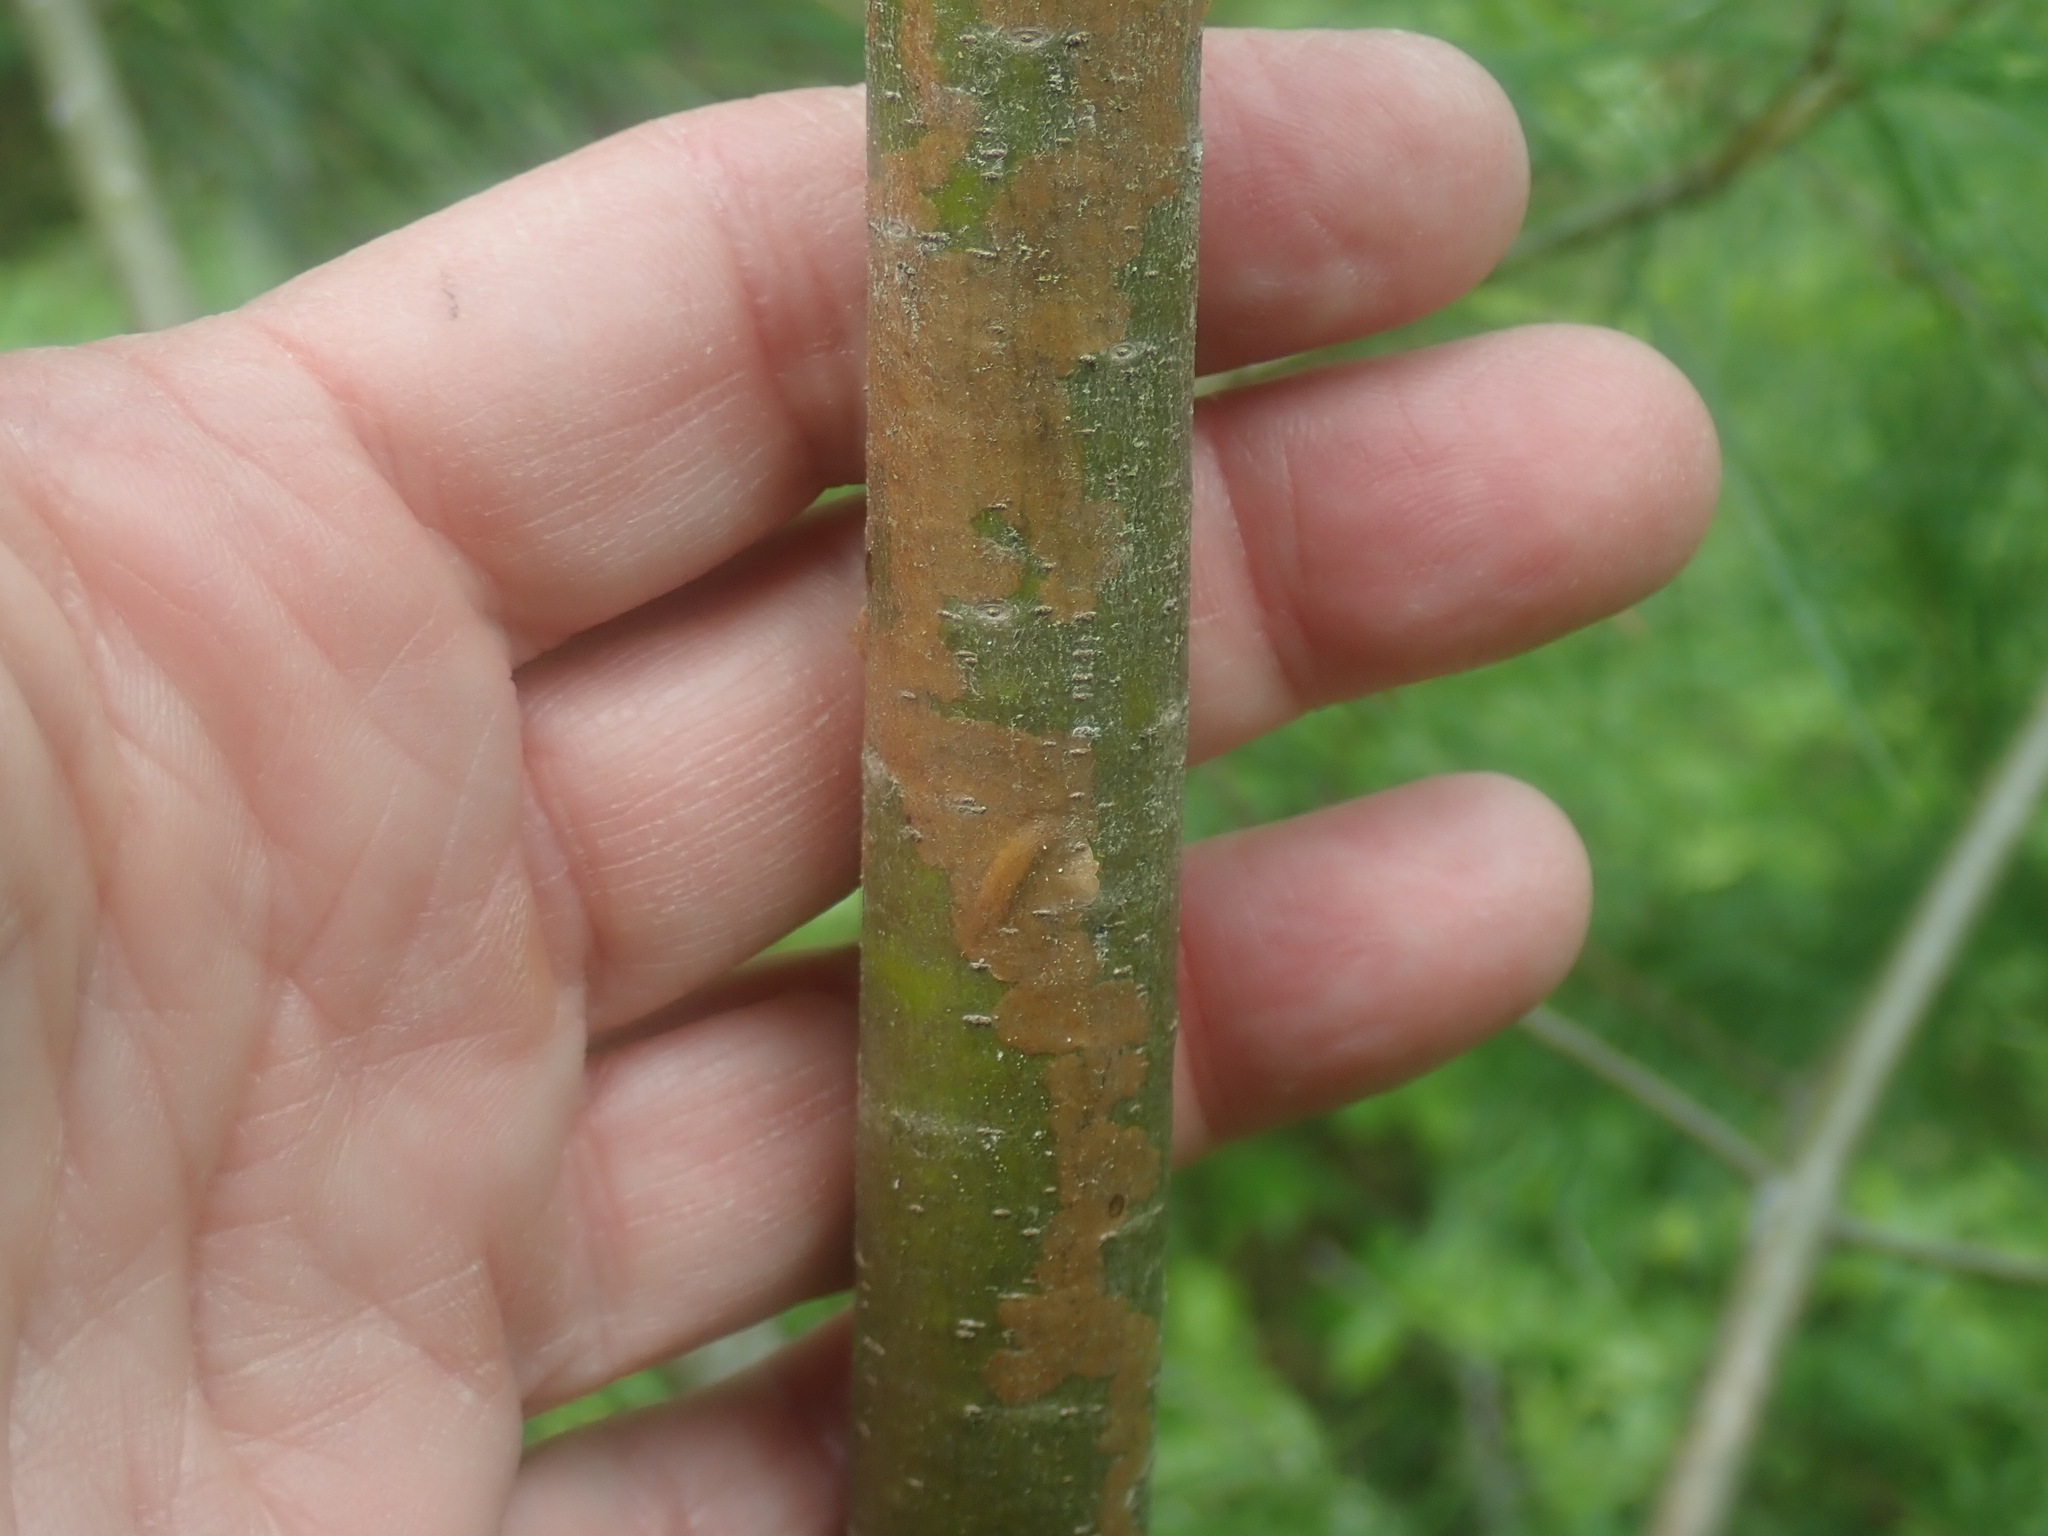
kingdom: Animalia
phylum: Arthropoda
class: Insecta
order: Lepidoptera
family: Gracillariidae
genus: Marmara
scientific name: Marmara fasciella
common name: White pine barkminer moth
